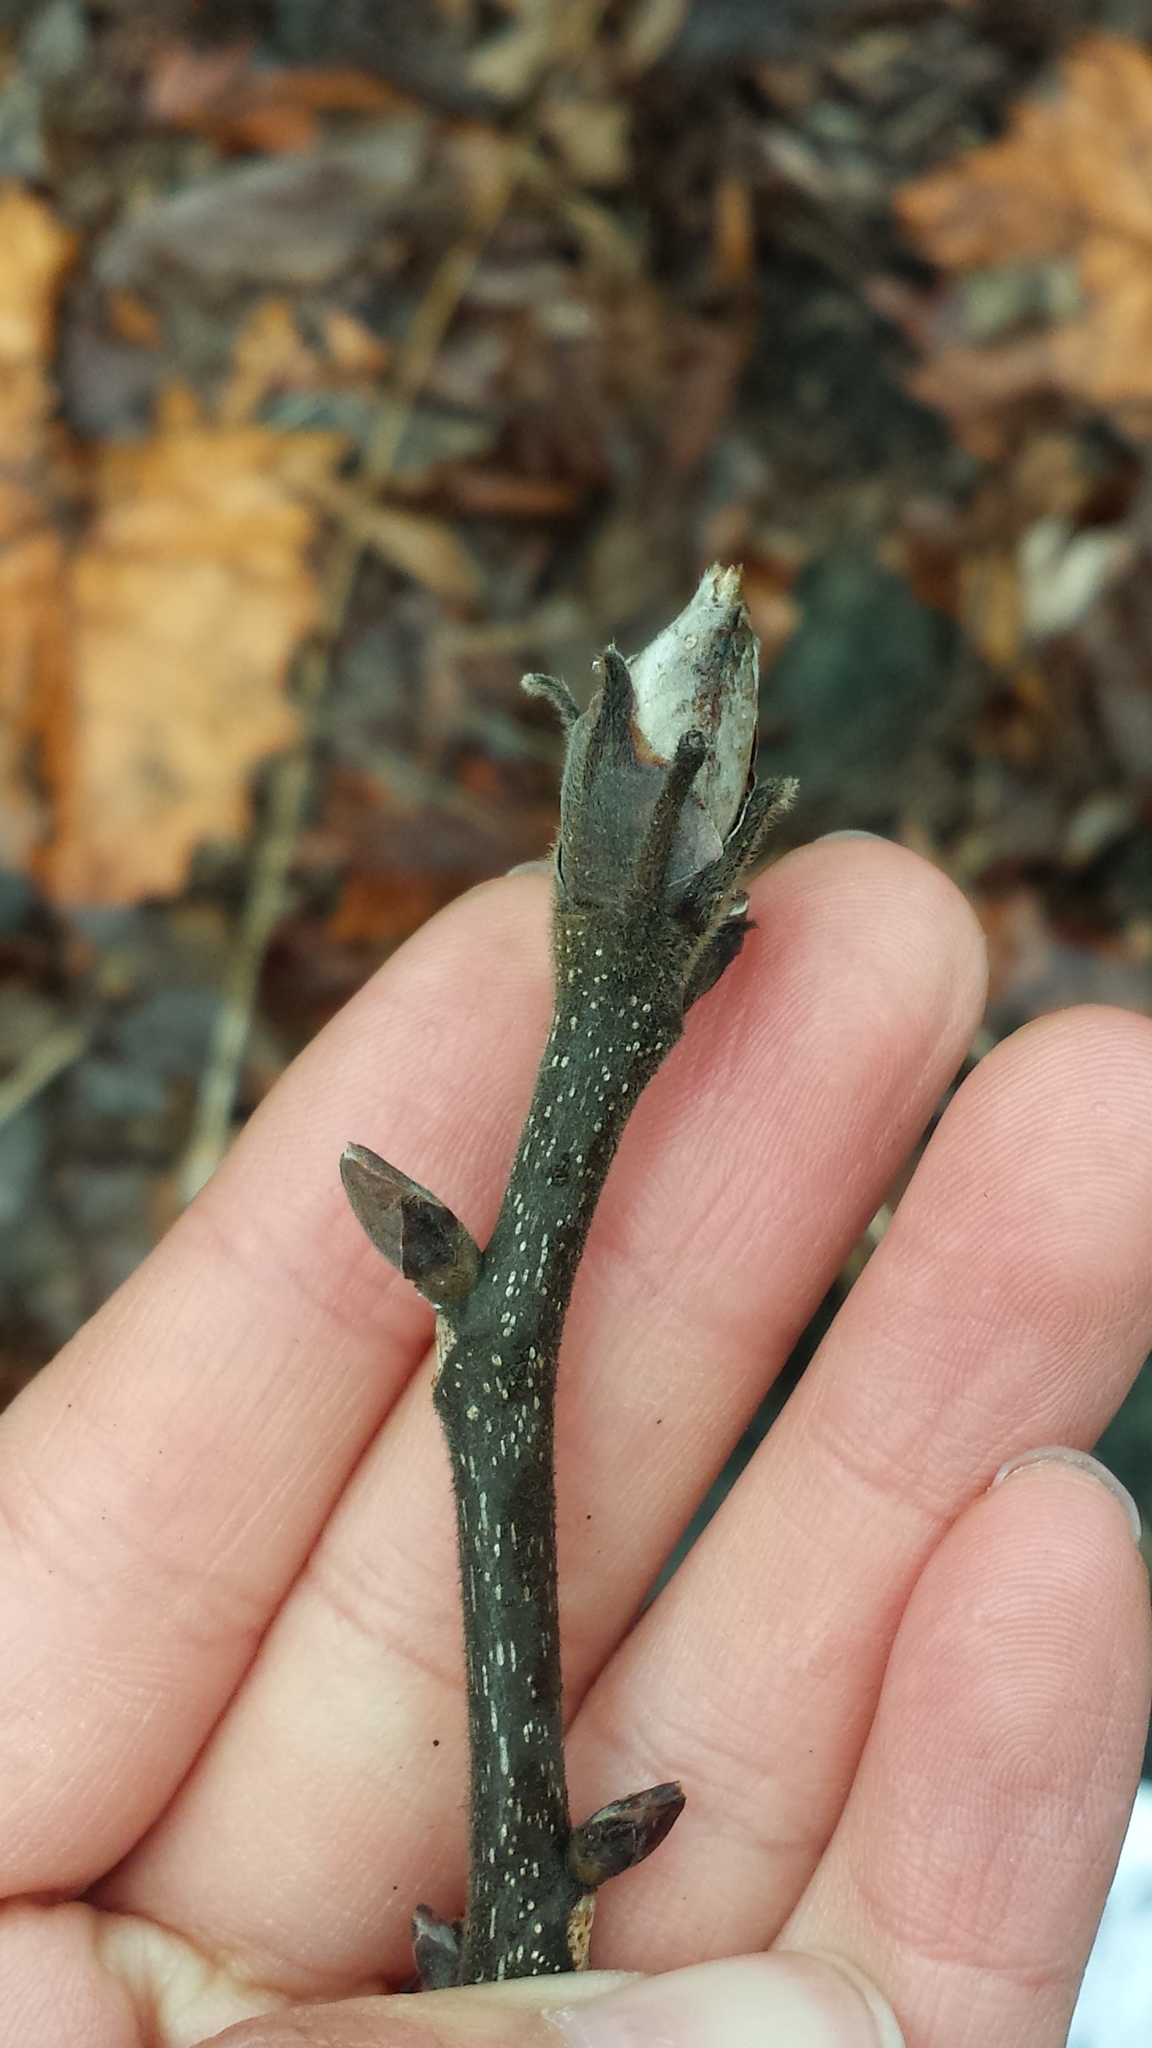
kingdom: Plantae
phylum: Tracheophyta
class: Magnoliopsida
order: Fagales
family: Juglandaceae
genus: Carya
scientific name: Carya ovata
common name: Shagbark hickory
